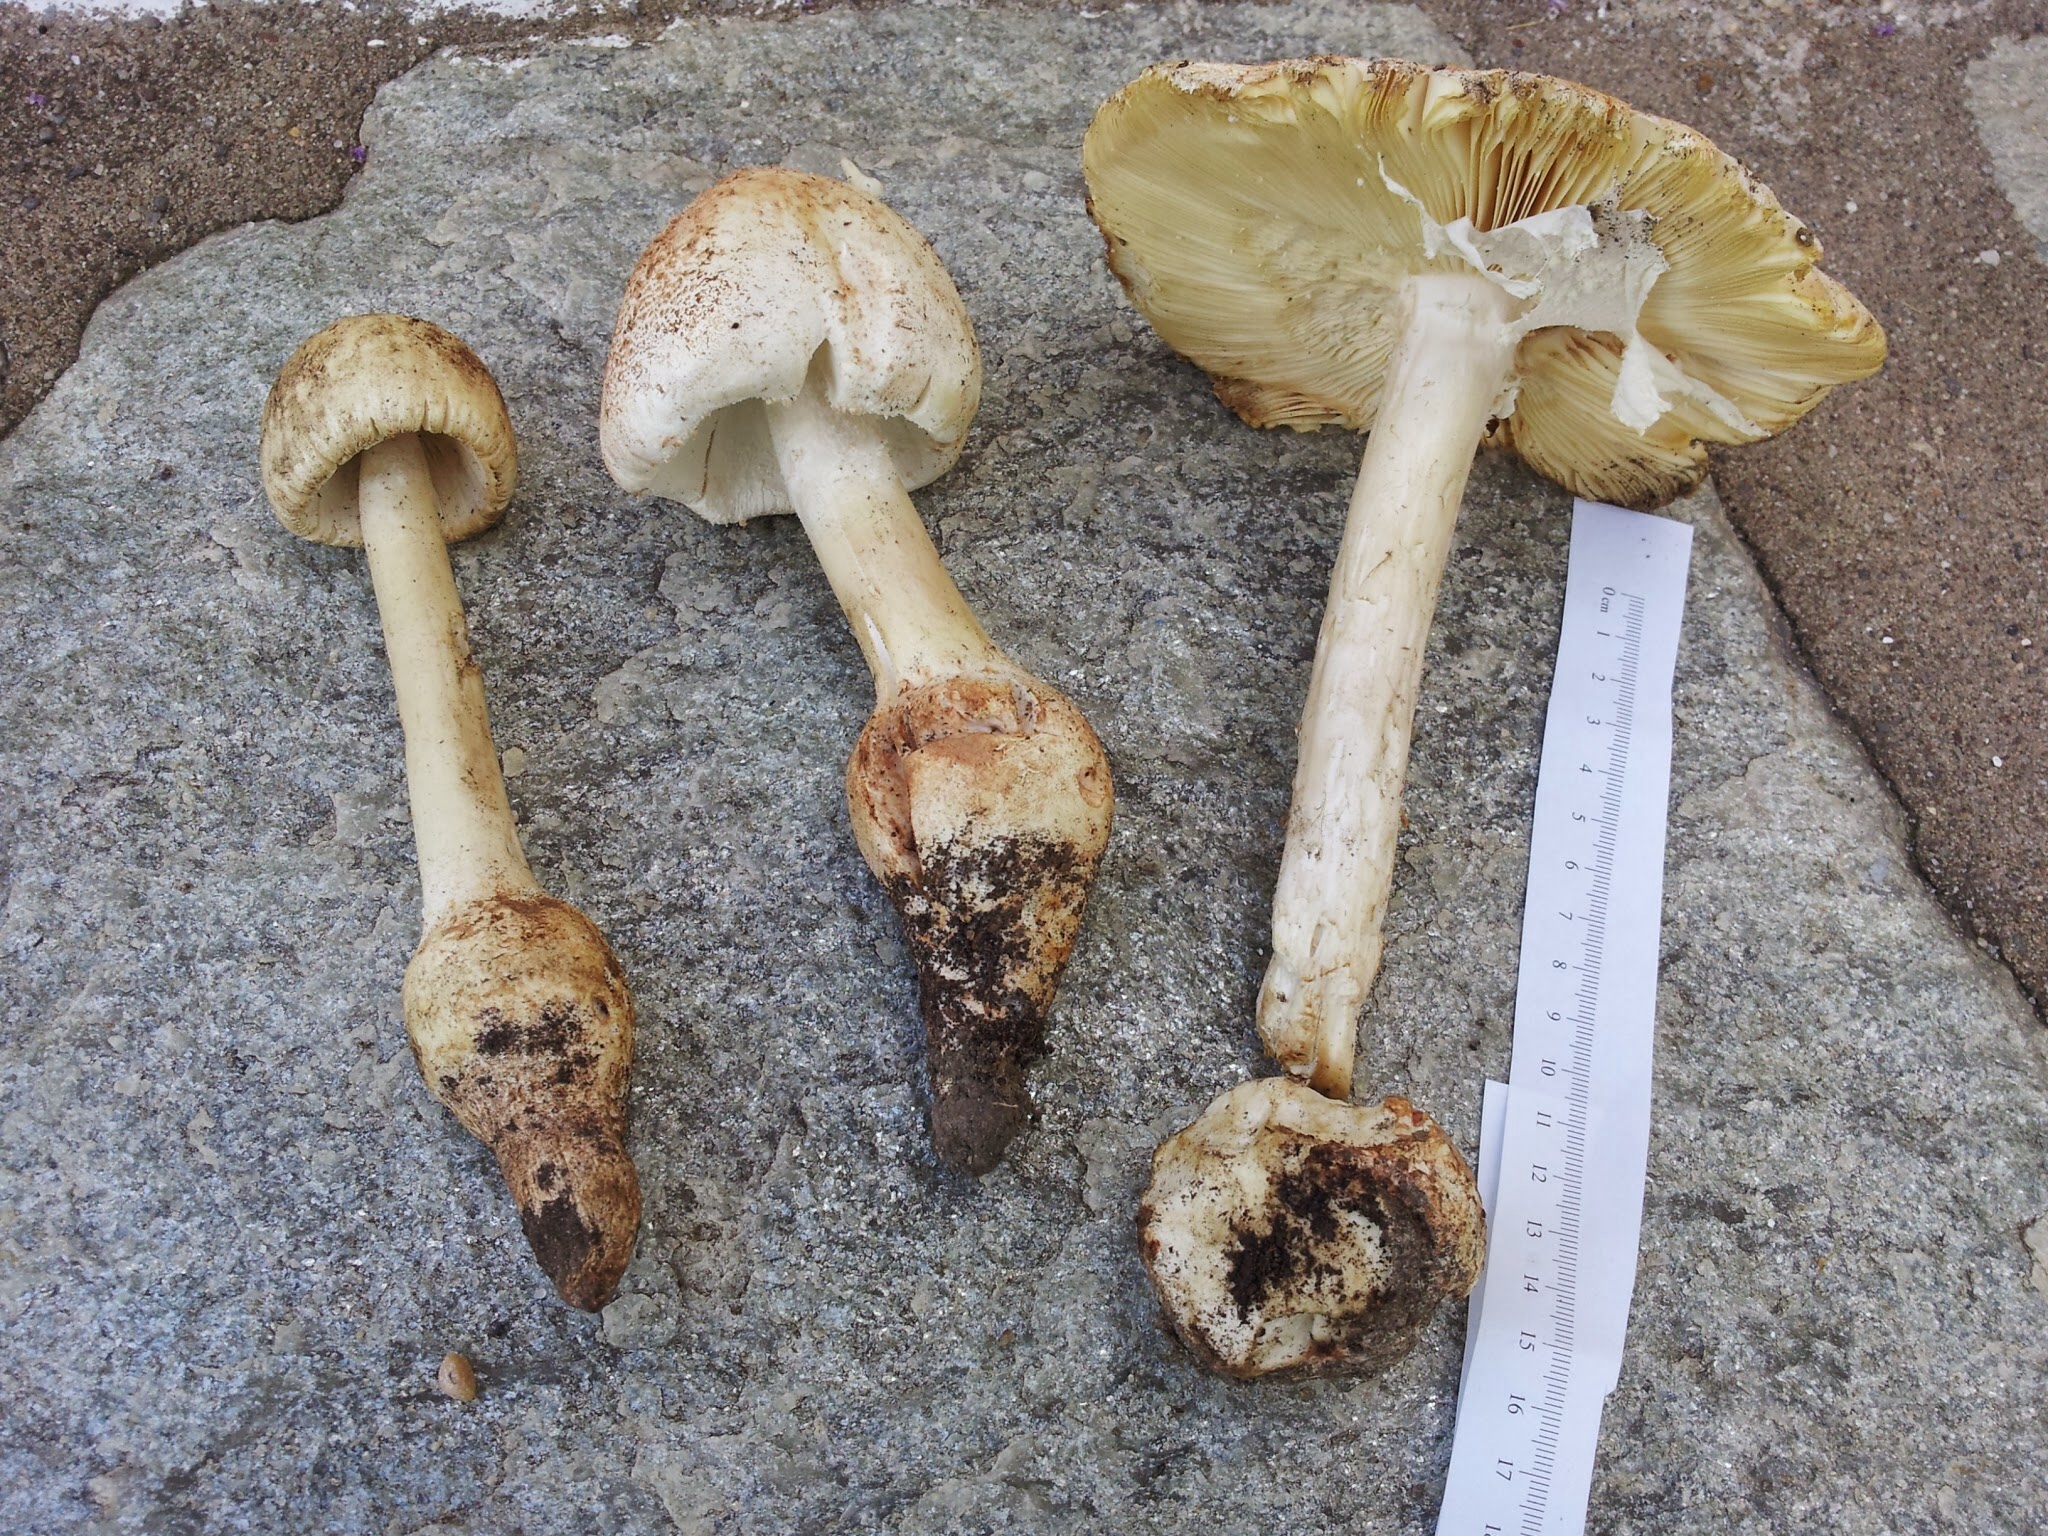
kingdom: Fungi
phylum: Basidiomycota
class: Agaricomycetes
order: Agaricales
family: Amanitaceae
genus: Amanita
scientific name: Amanita daucipes
